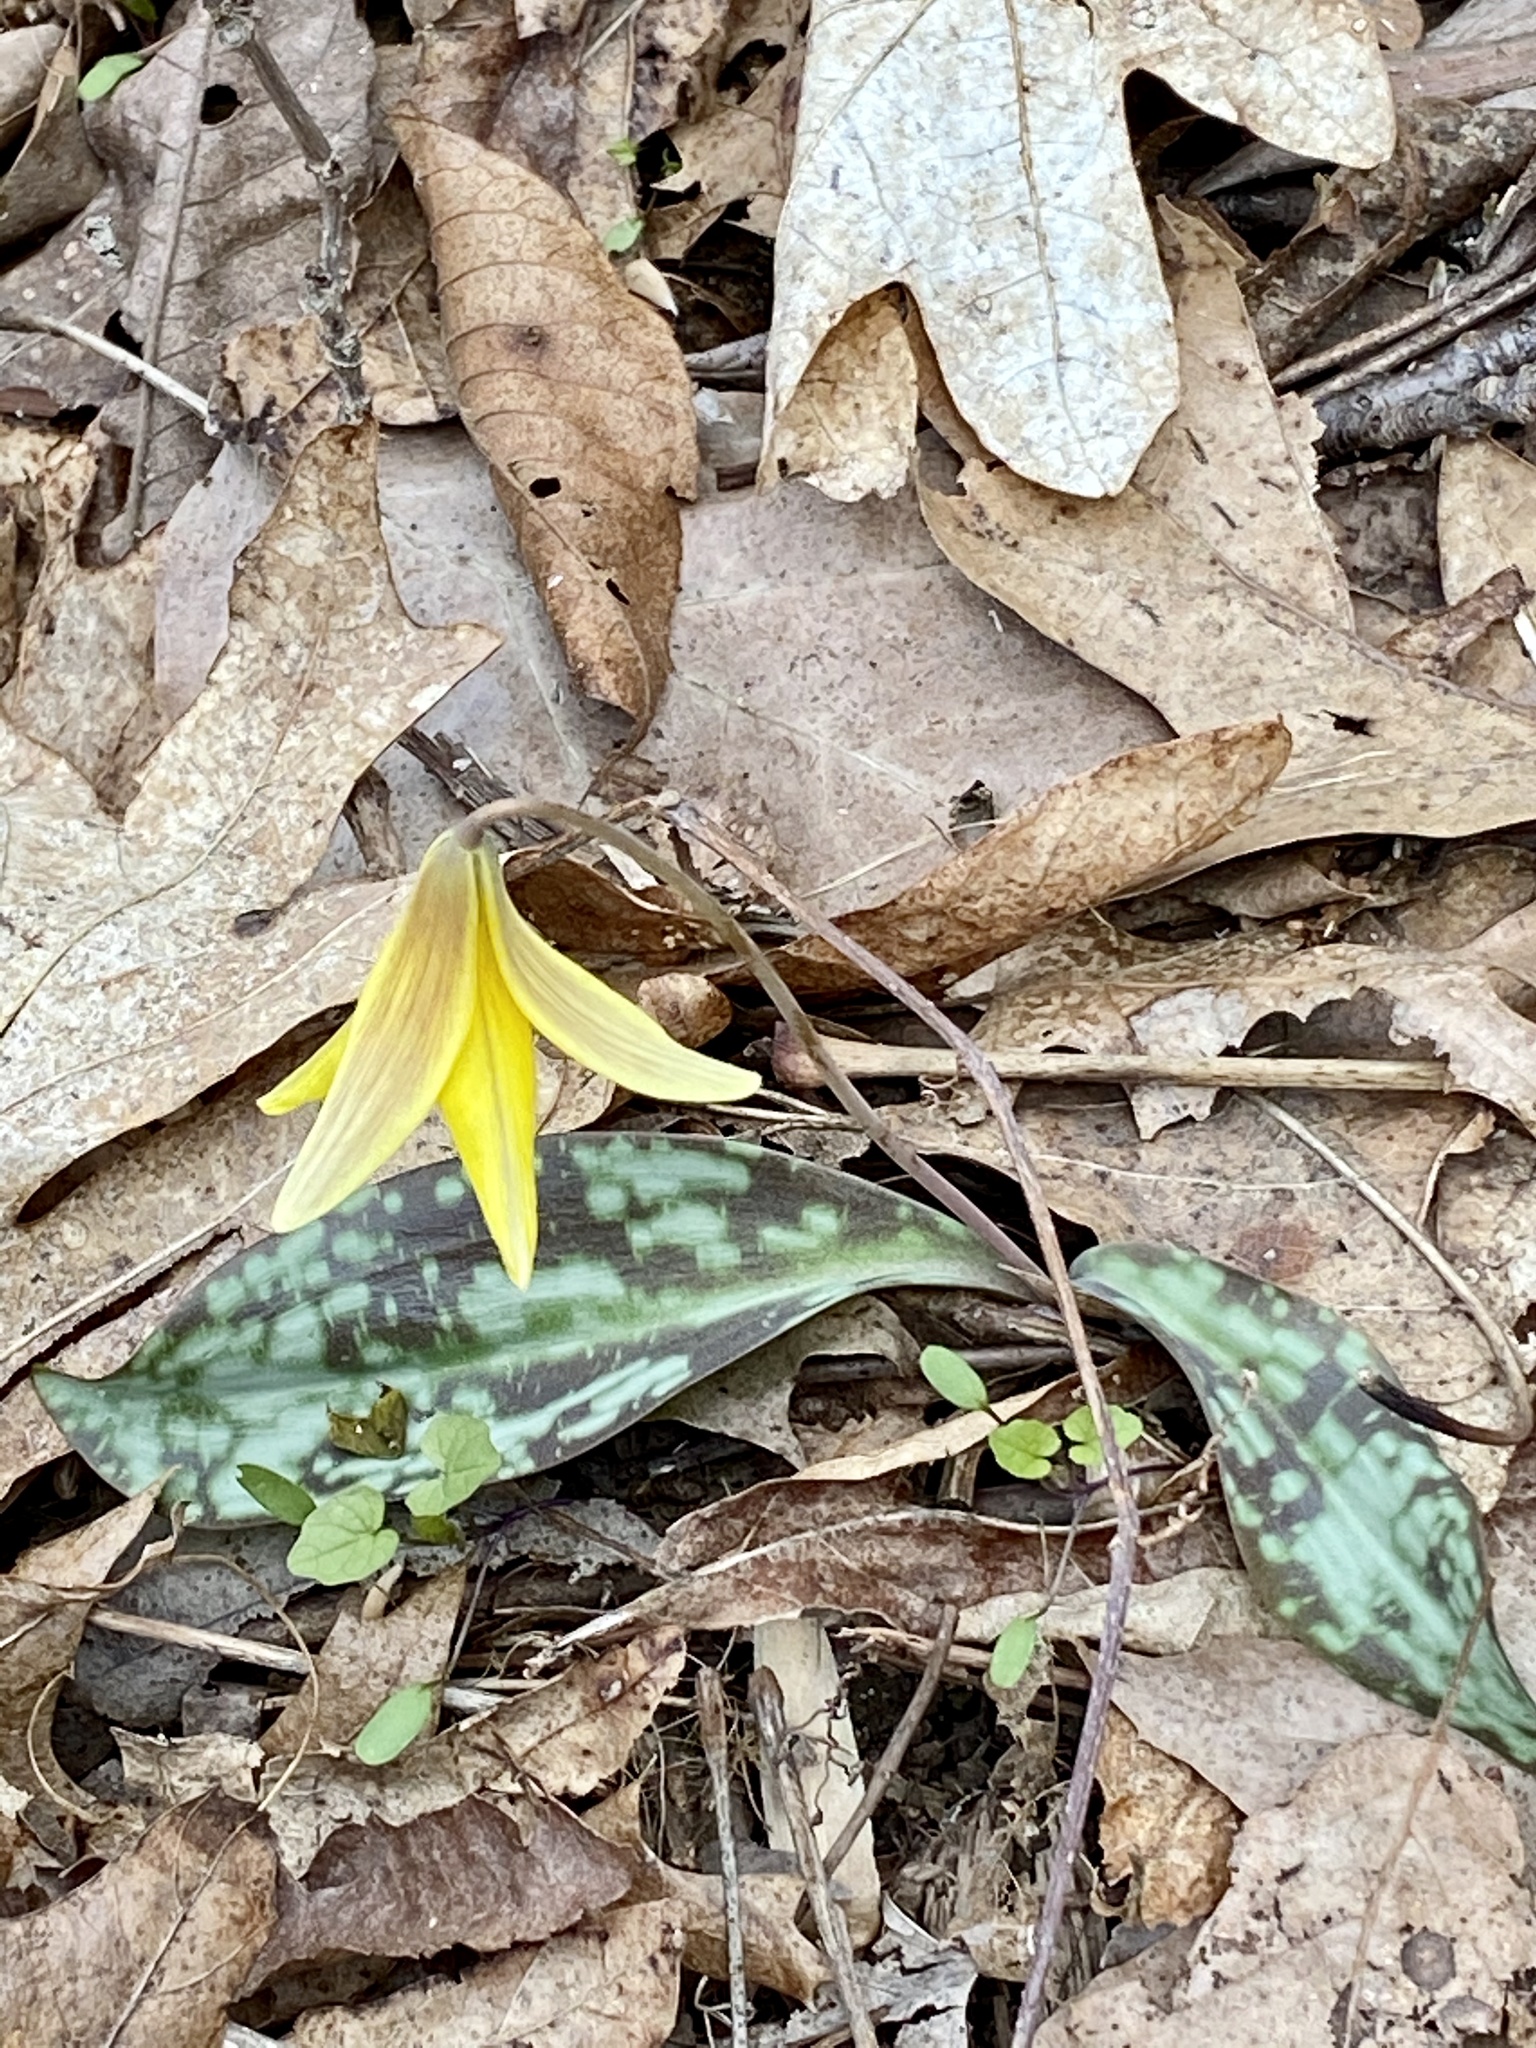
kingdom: Plantae
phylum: Tracheophyta
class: Liliopsida
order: Liliales
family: Liliaceae
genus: Erythronium
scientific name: Erythronium americanum
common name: Yellow adder's-tongue
